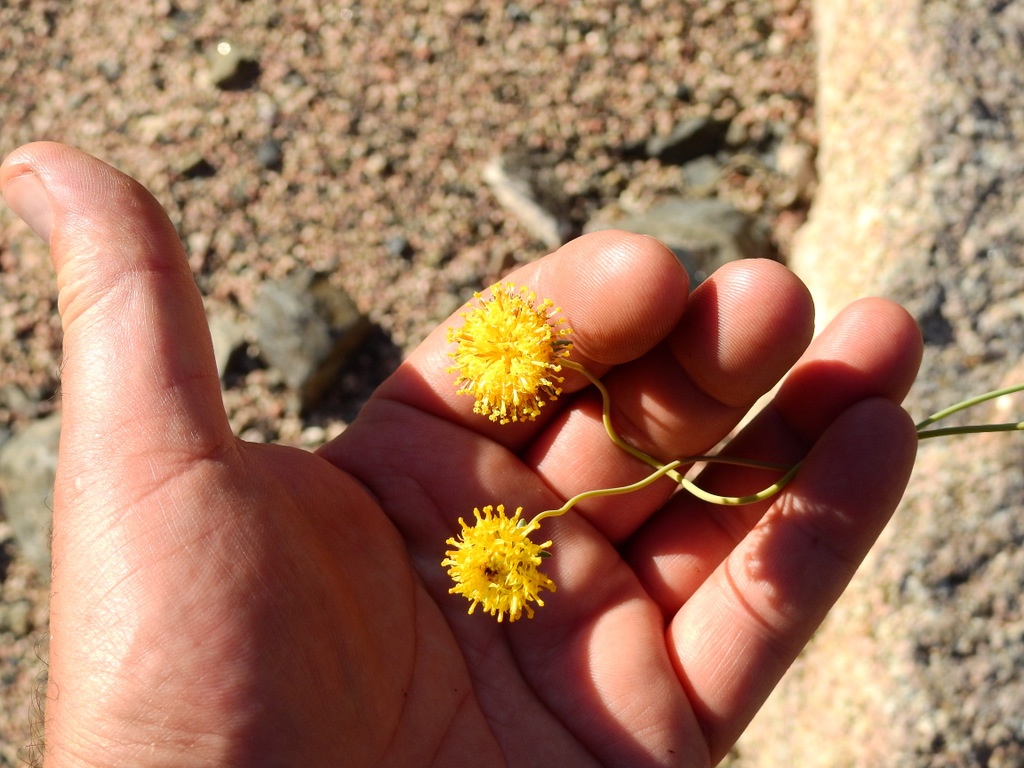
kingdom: Plantae
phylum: Tracheophyta
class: Magnoliopsida
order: Asterales
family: Asteraceae
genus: Thelesperma
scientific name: Thelesperma megapotamicum
